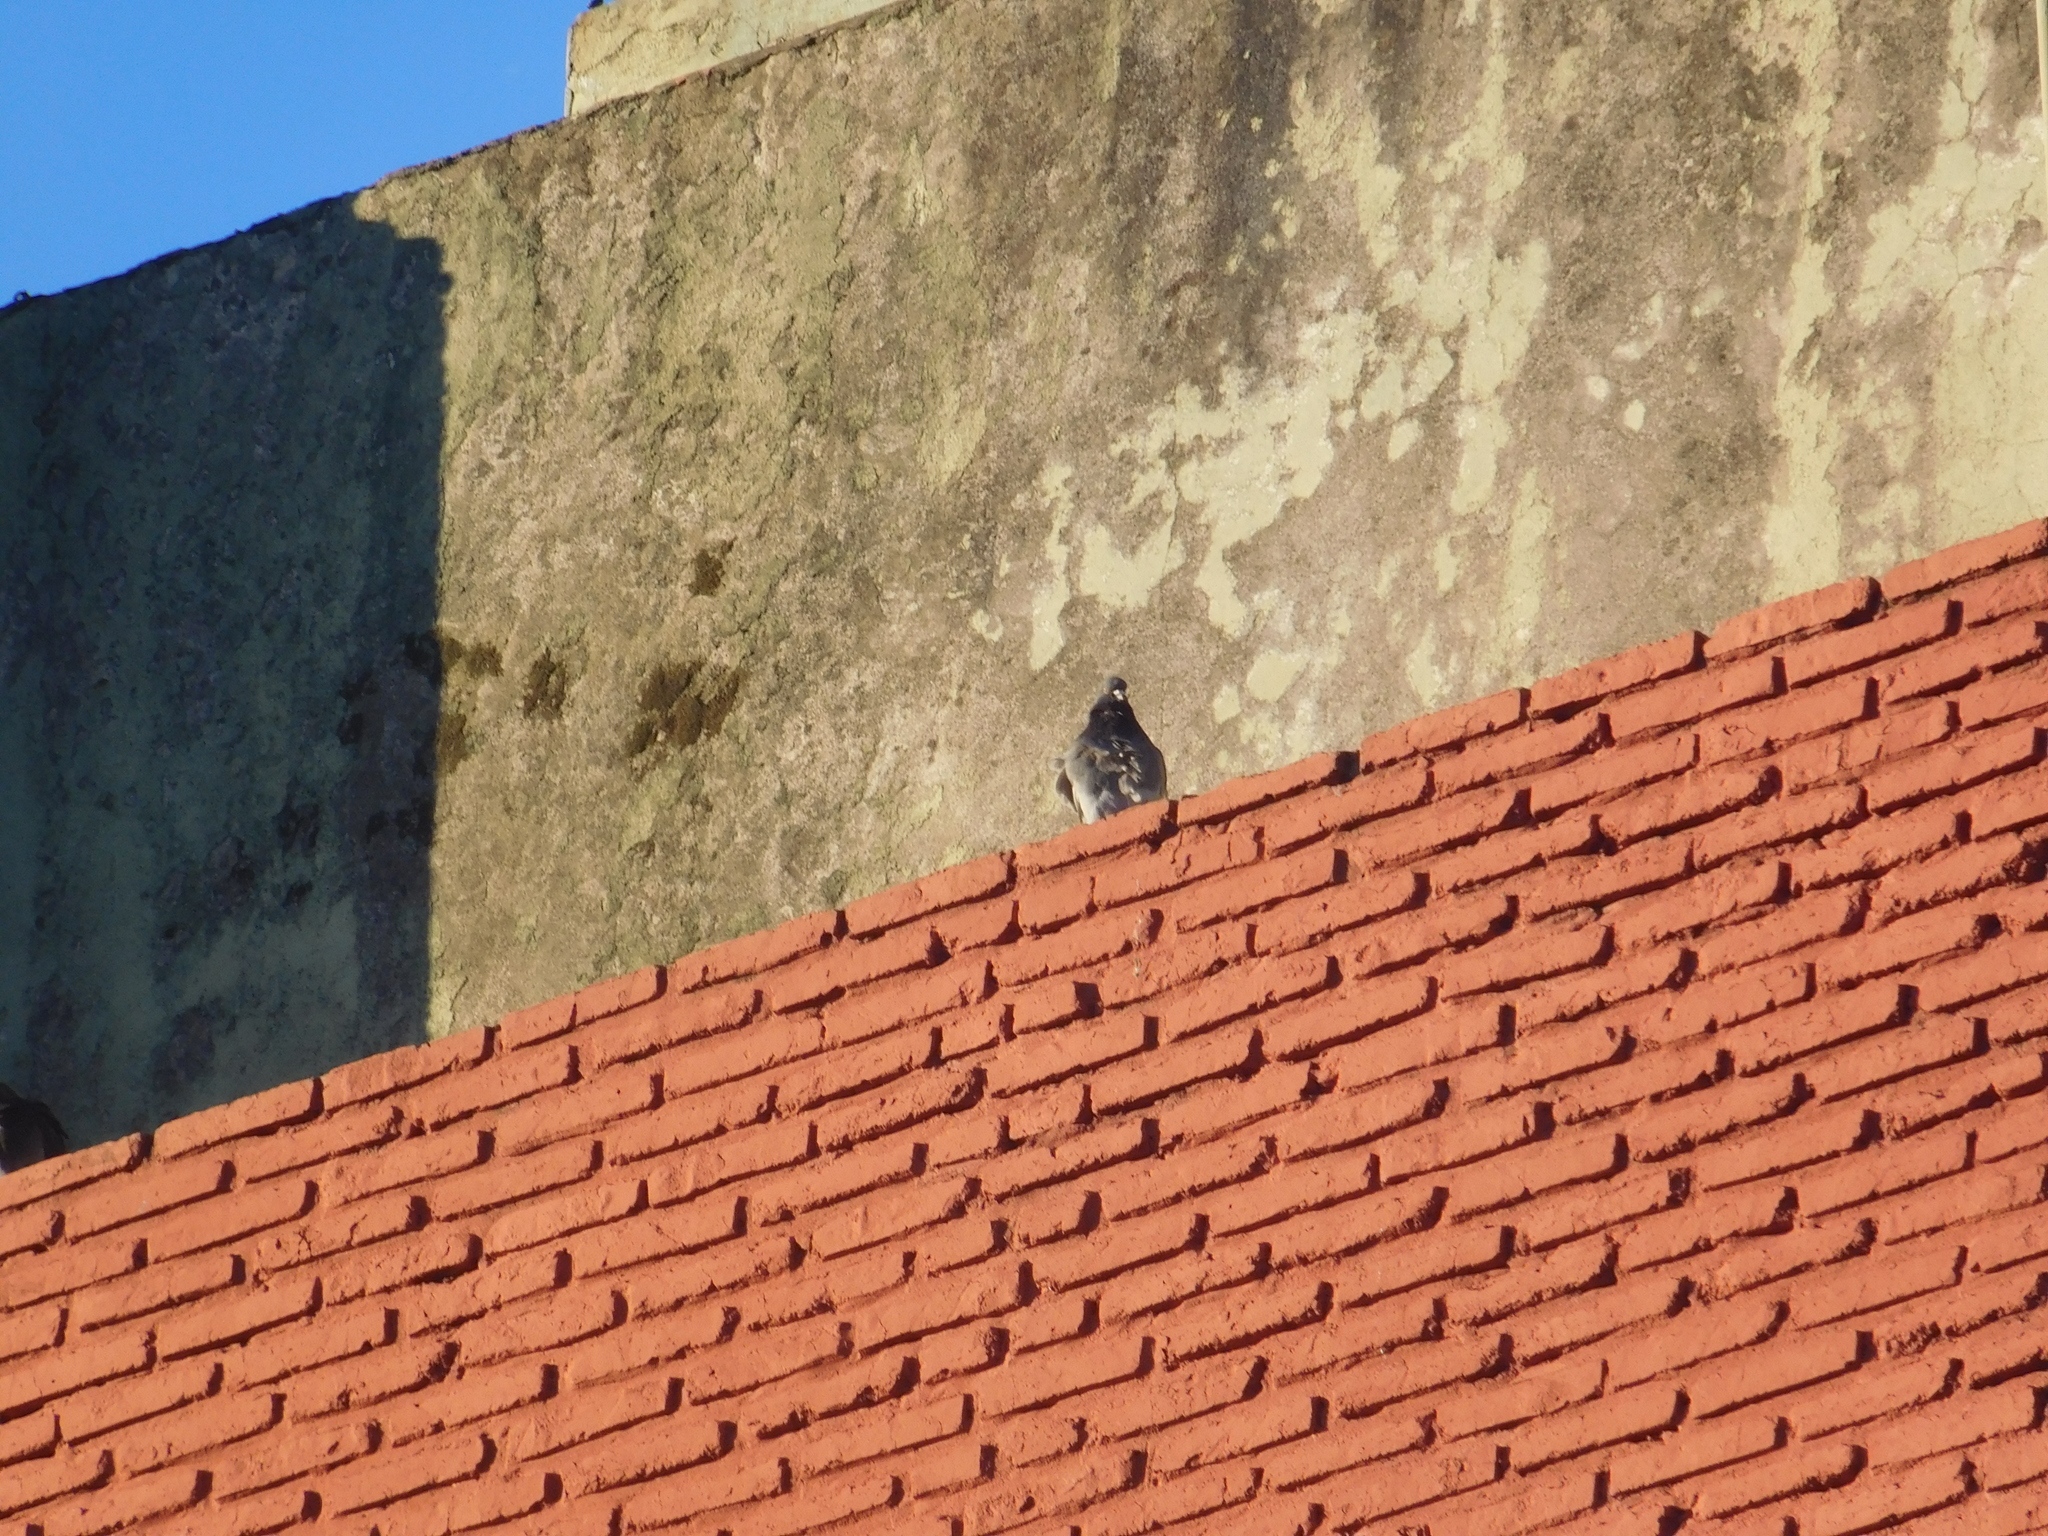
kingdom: Animalia
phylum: Chordata
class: Aves
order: Columbiformes
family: Columbidae
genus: Columba
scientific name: Columba livia
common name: Rock pigeon
